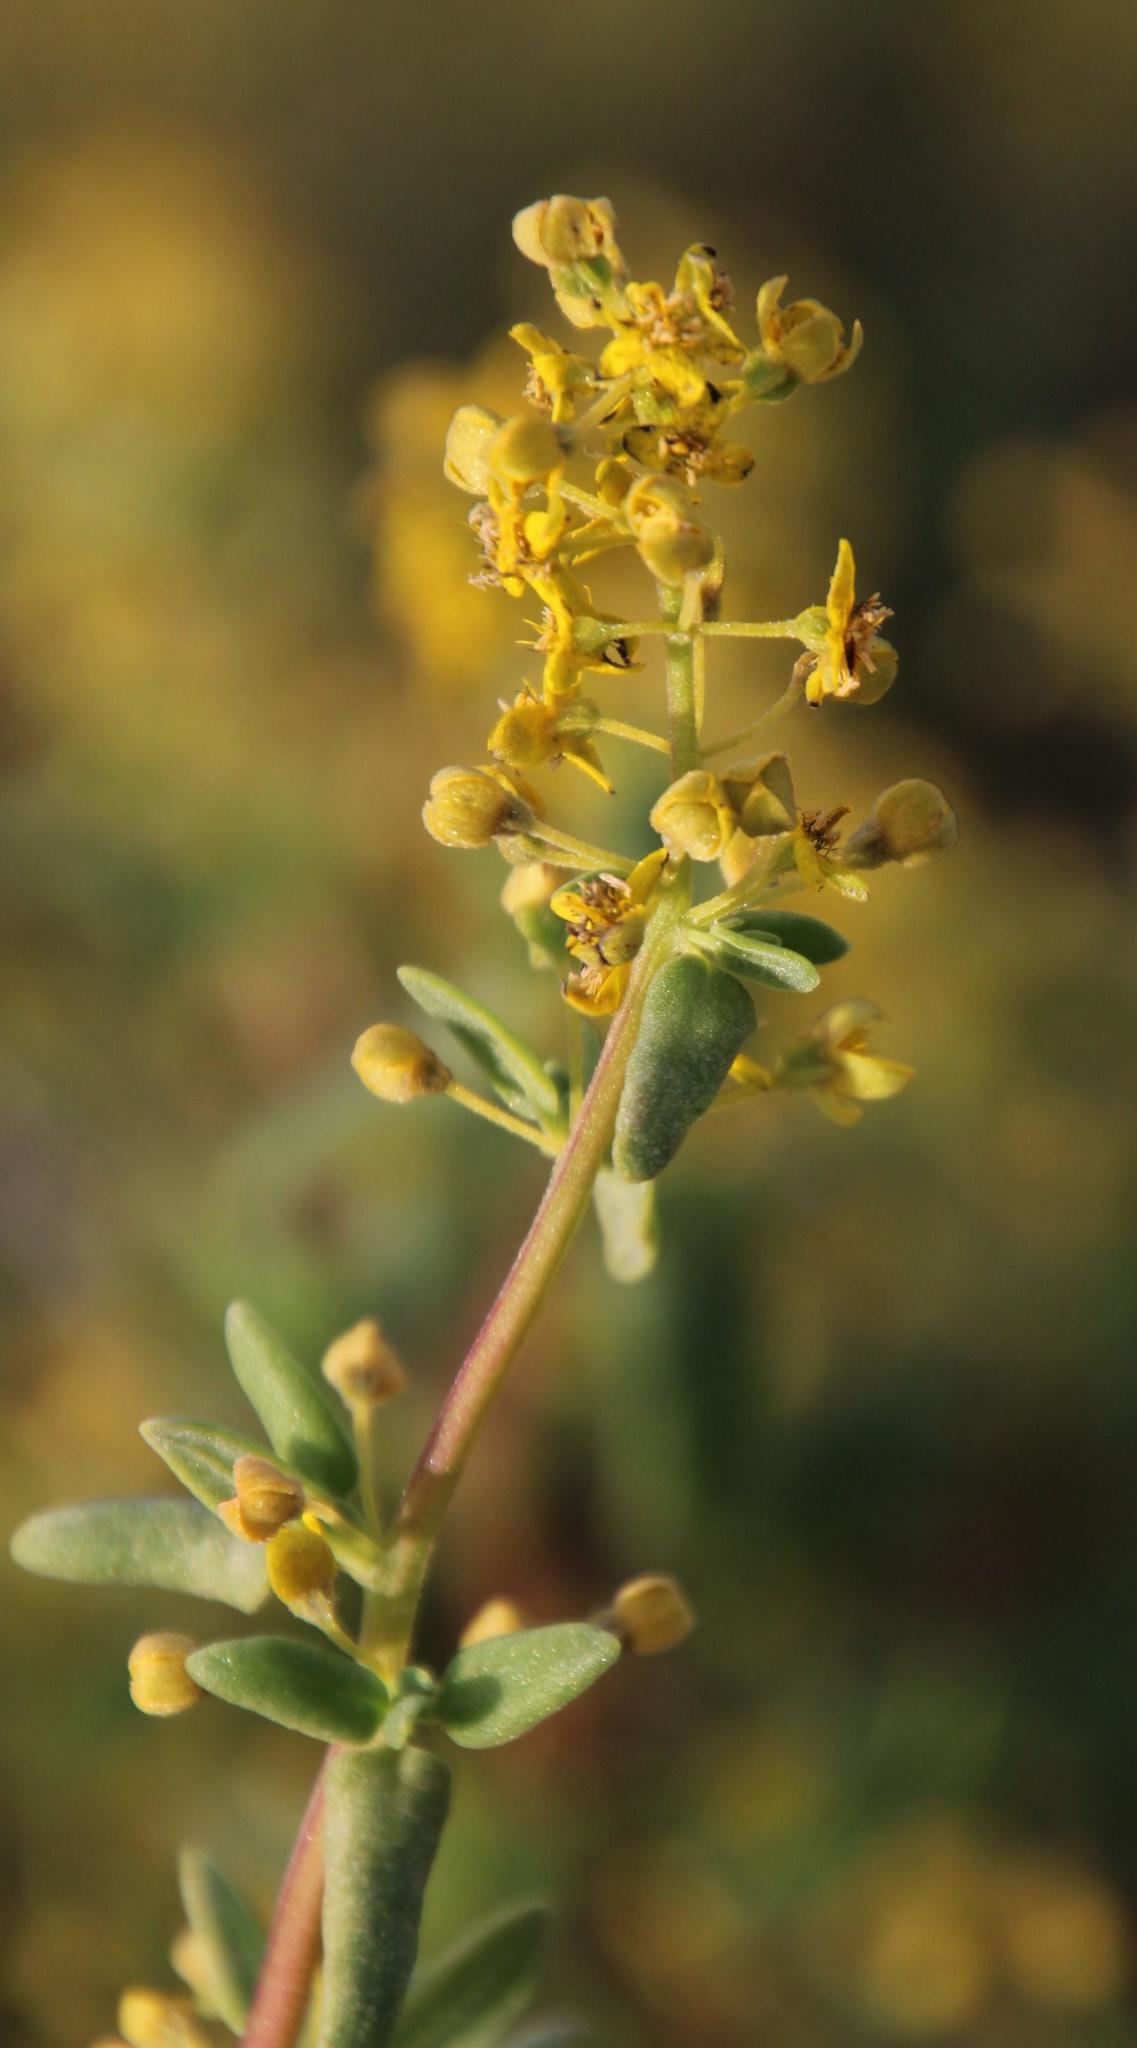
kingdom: Plantae
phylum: Tracheophyta
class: Magnoliopsida
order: Caryophyllales
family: Aizoaceae
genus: Tetragonia
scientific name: Tetragonia fruticosa
